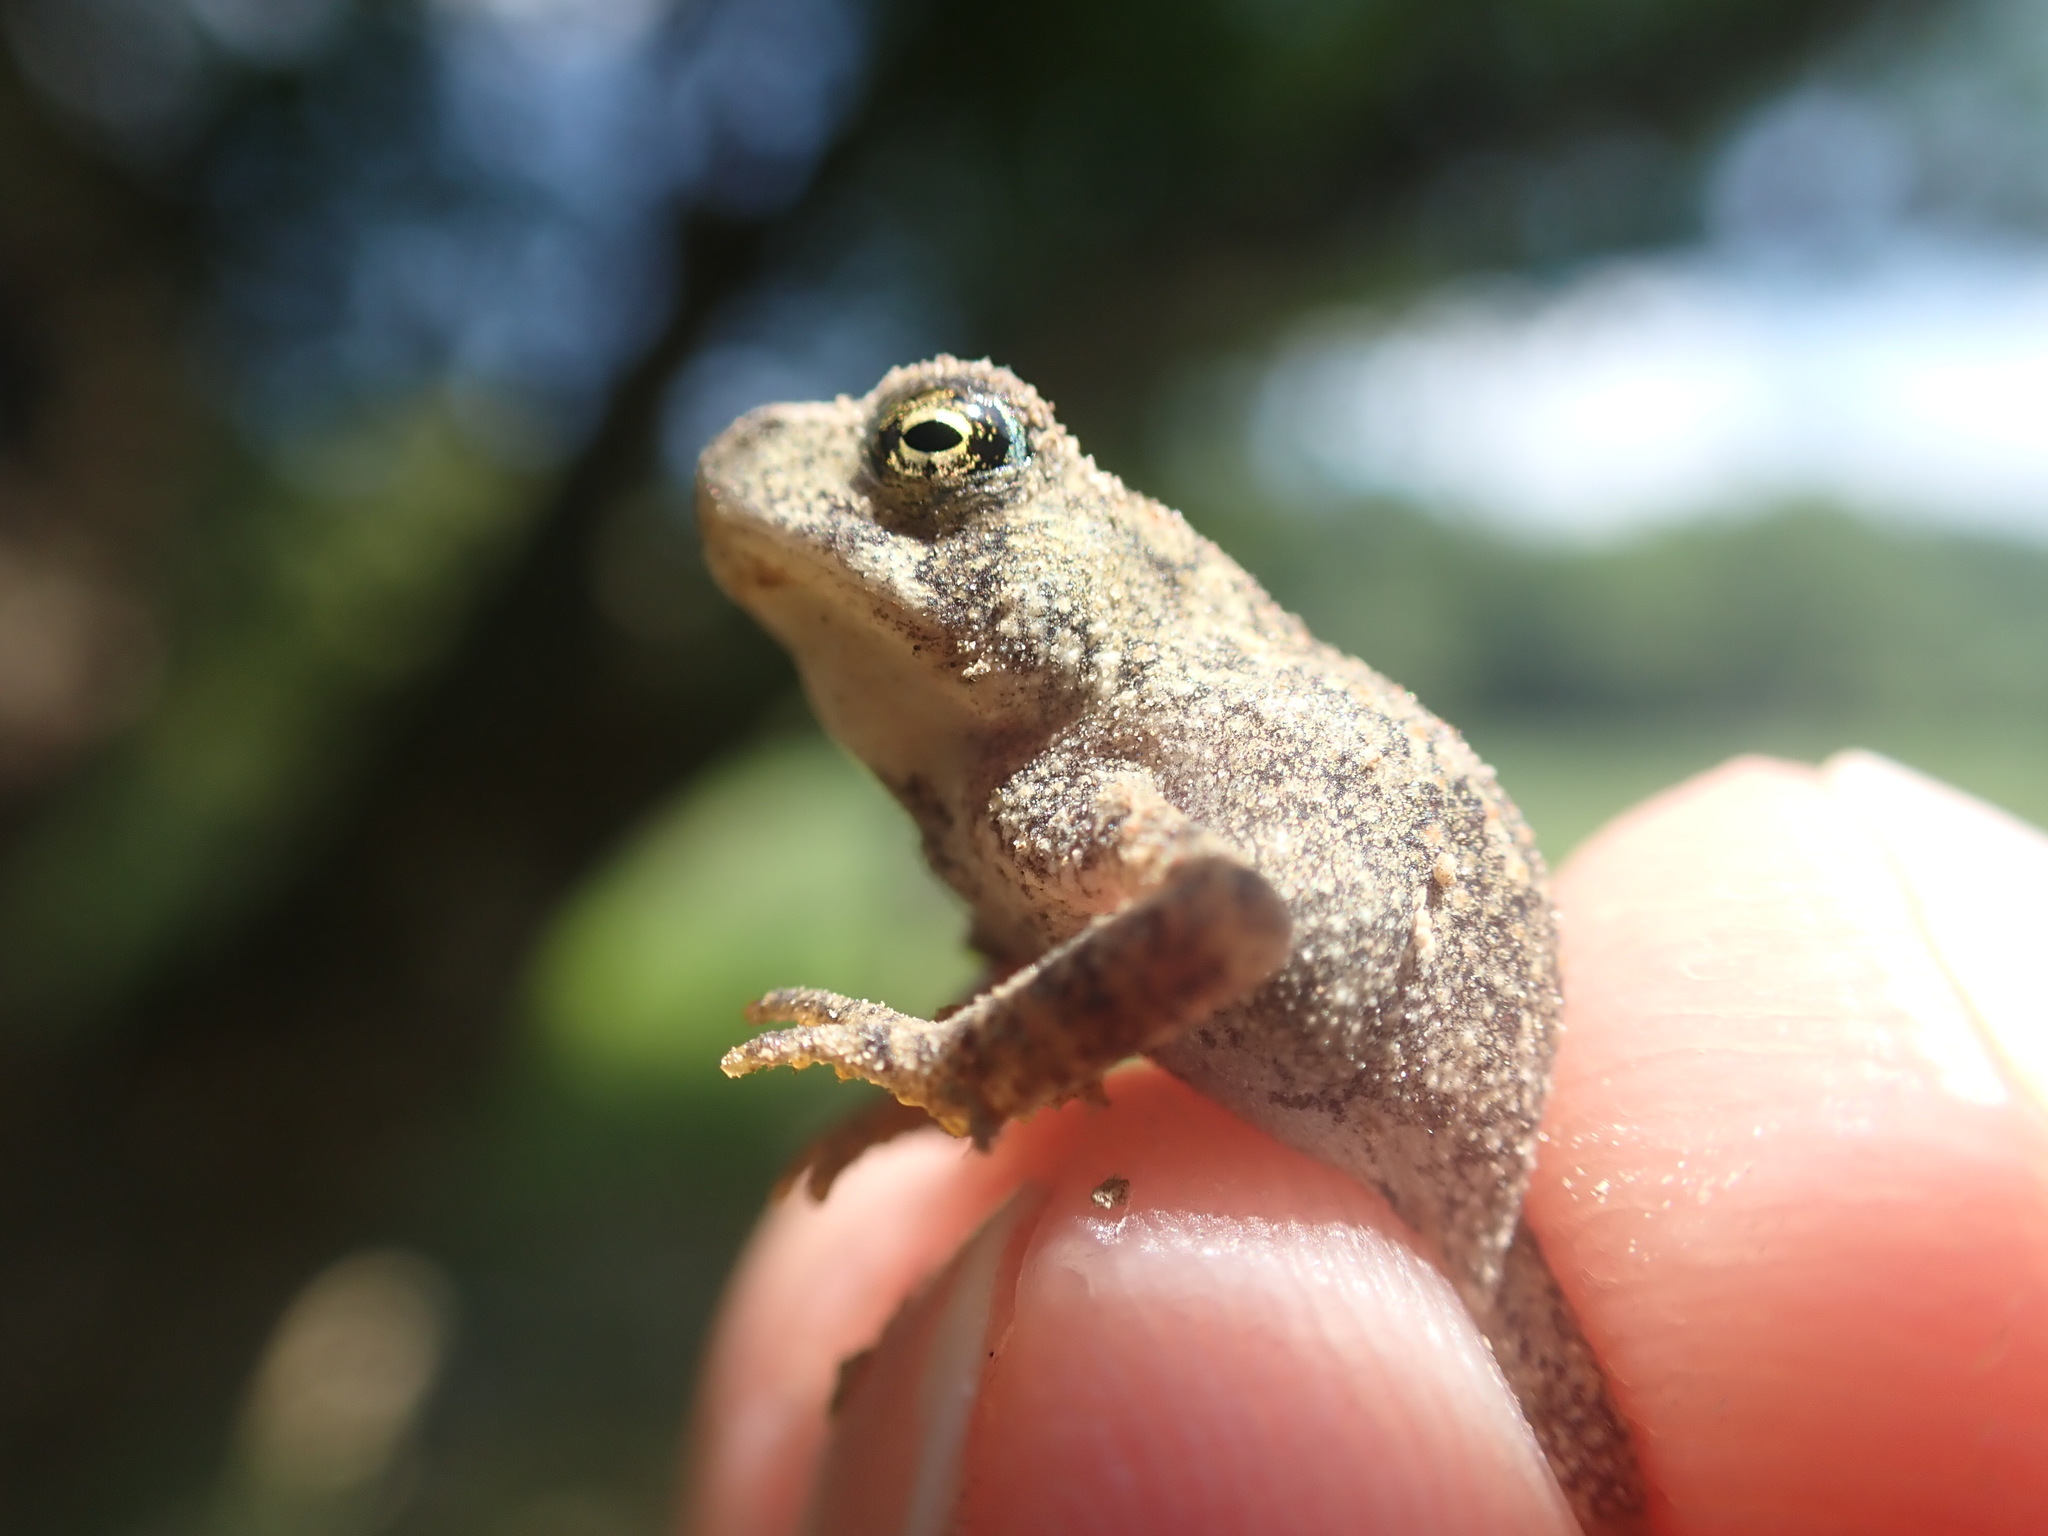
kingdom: Animalia
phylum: Chordata
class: Amphibia
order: Anura
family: Bufonidae
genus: Anaxyrus
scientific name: Anaxyrus americanus
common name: American toad
